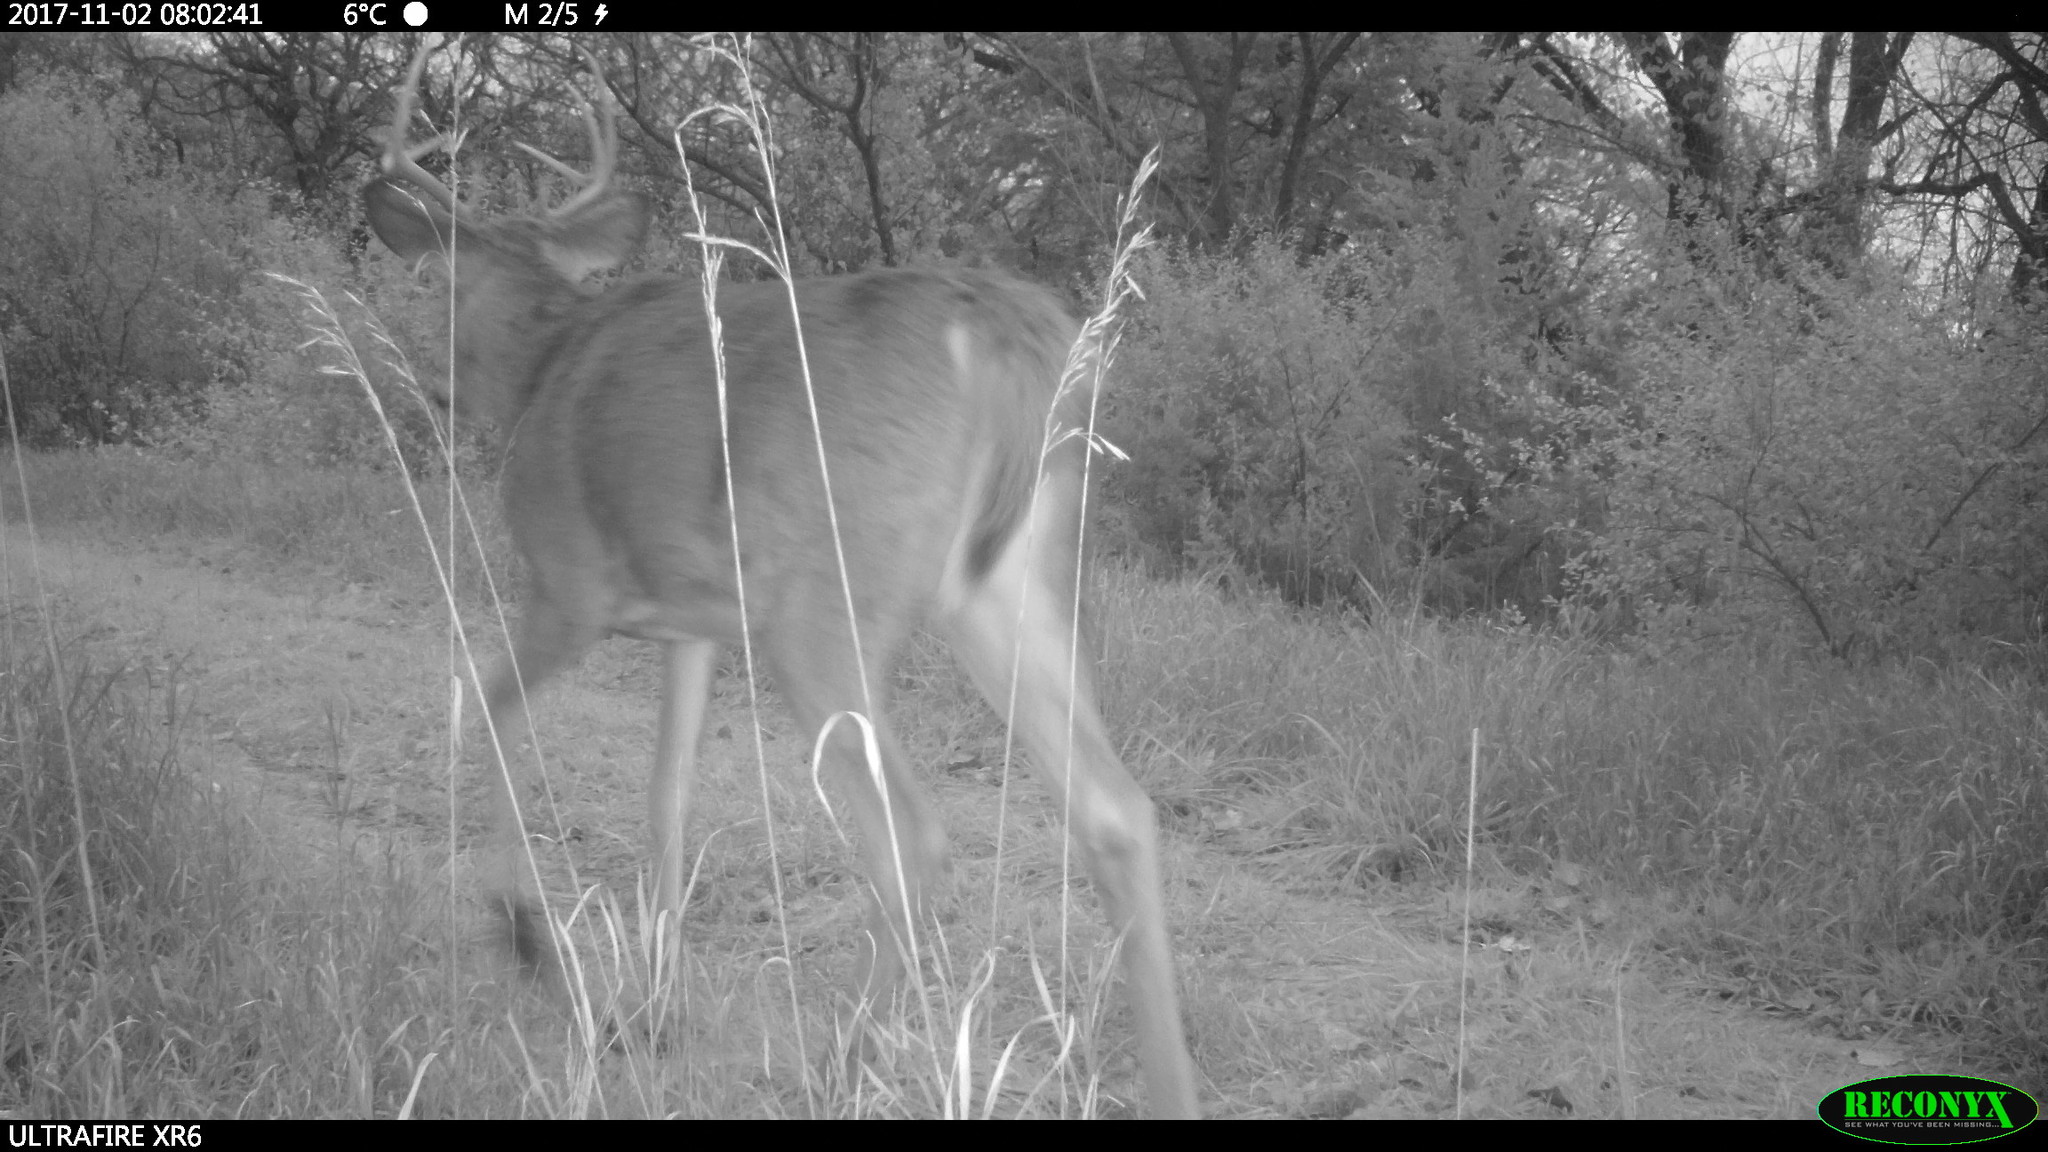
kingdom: Animalia
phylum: Chordata
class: Mammalia
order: Artiodactyla
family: Cervidae
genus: Odocoileus
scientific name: Odocoileus virginianus
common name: White-tailed deer
